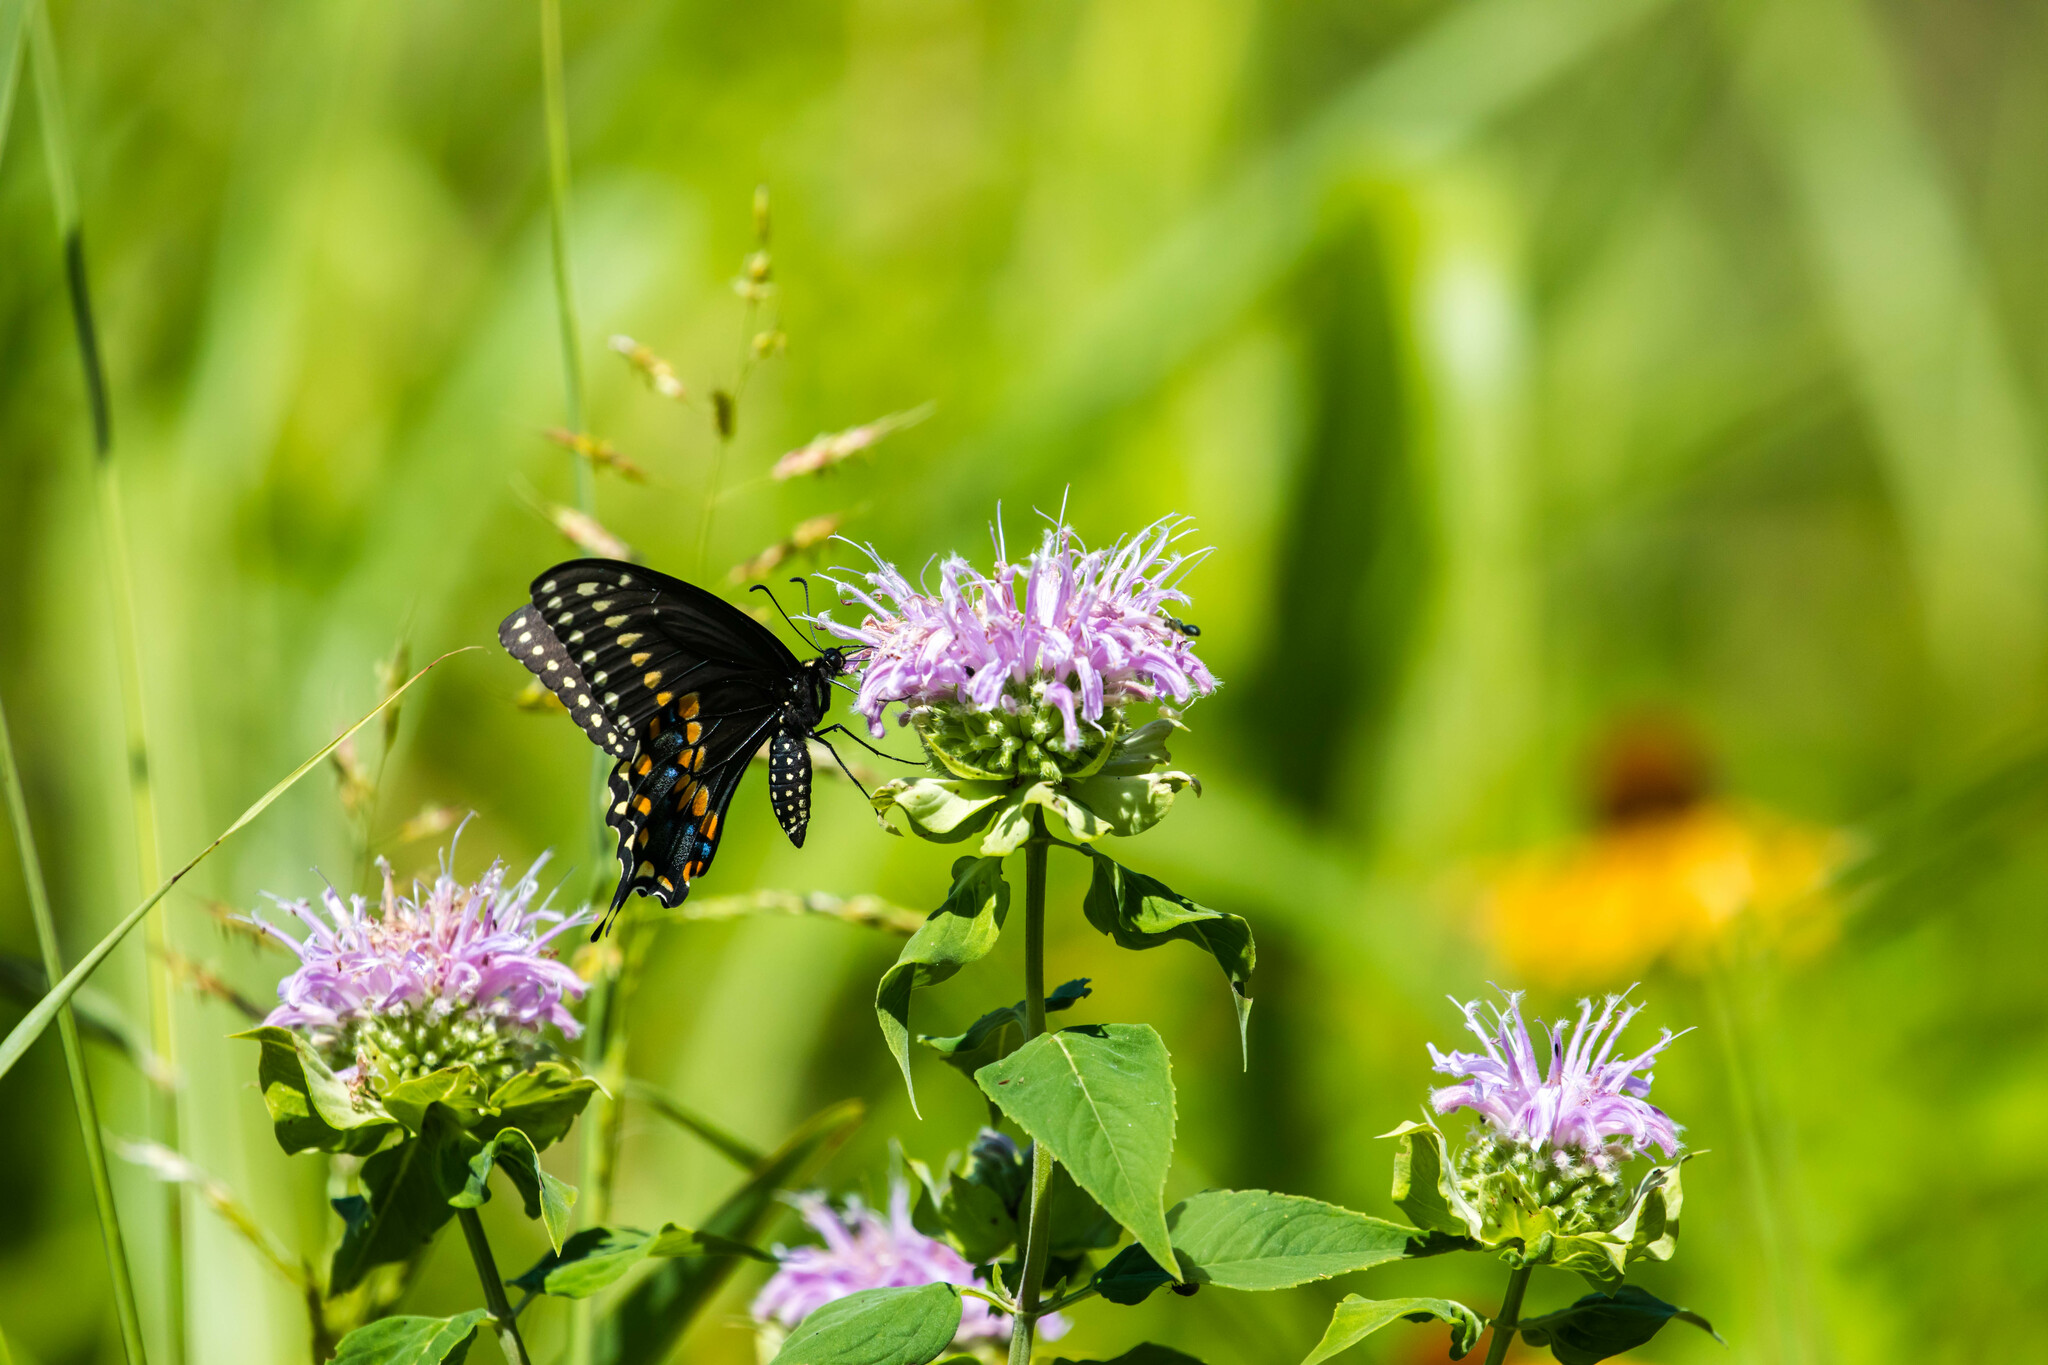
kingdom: Animalia
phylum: Arthropoda
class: Insecta
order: Lepidoptera
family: Papilionidae
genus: Papilio
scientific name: Papilio polyxenes
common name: Black swallowtail
